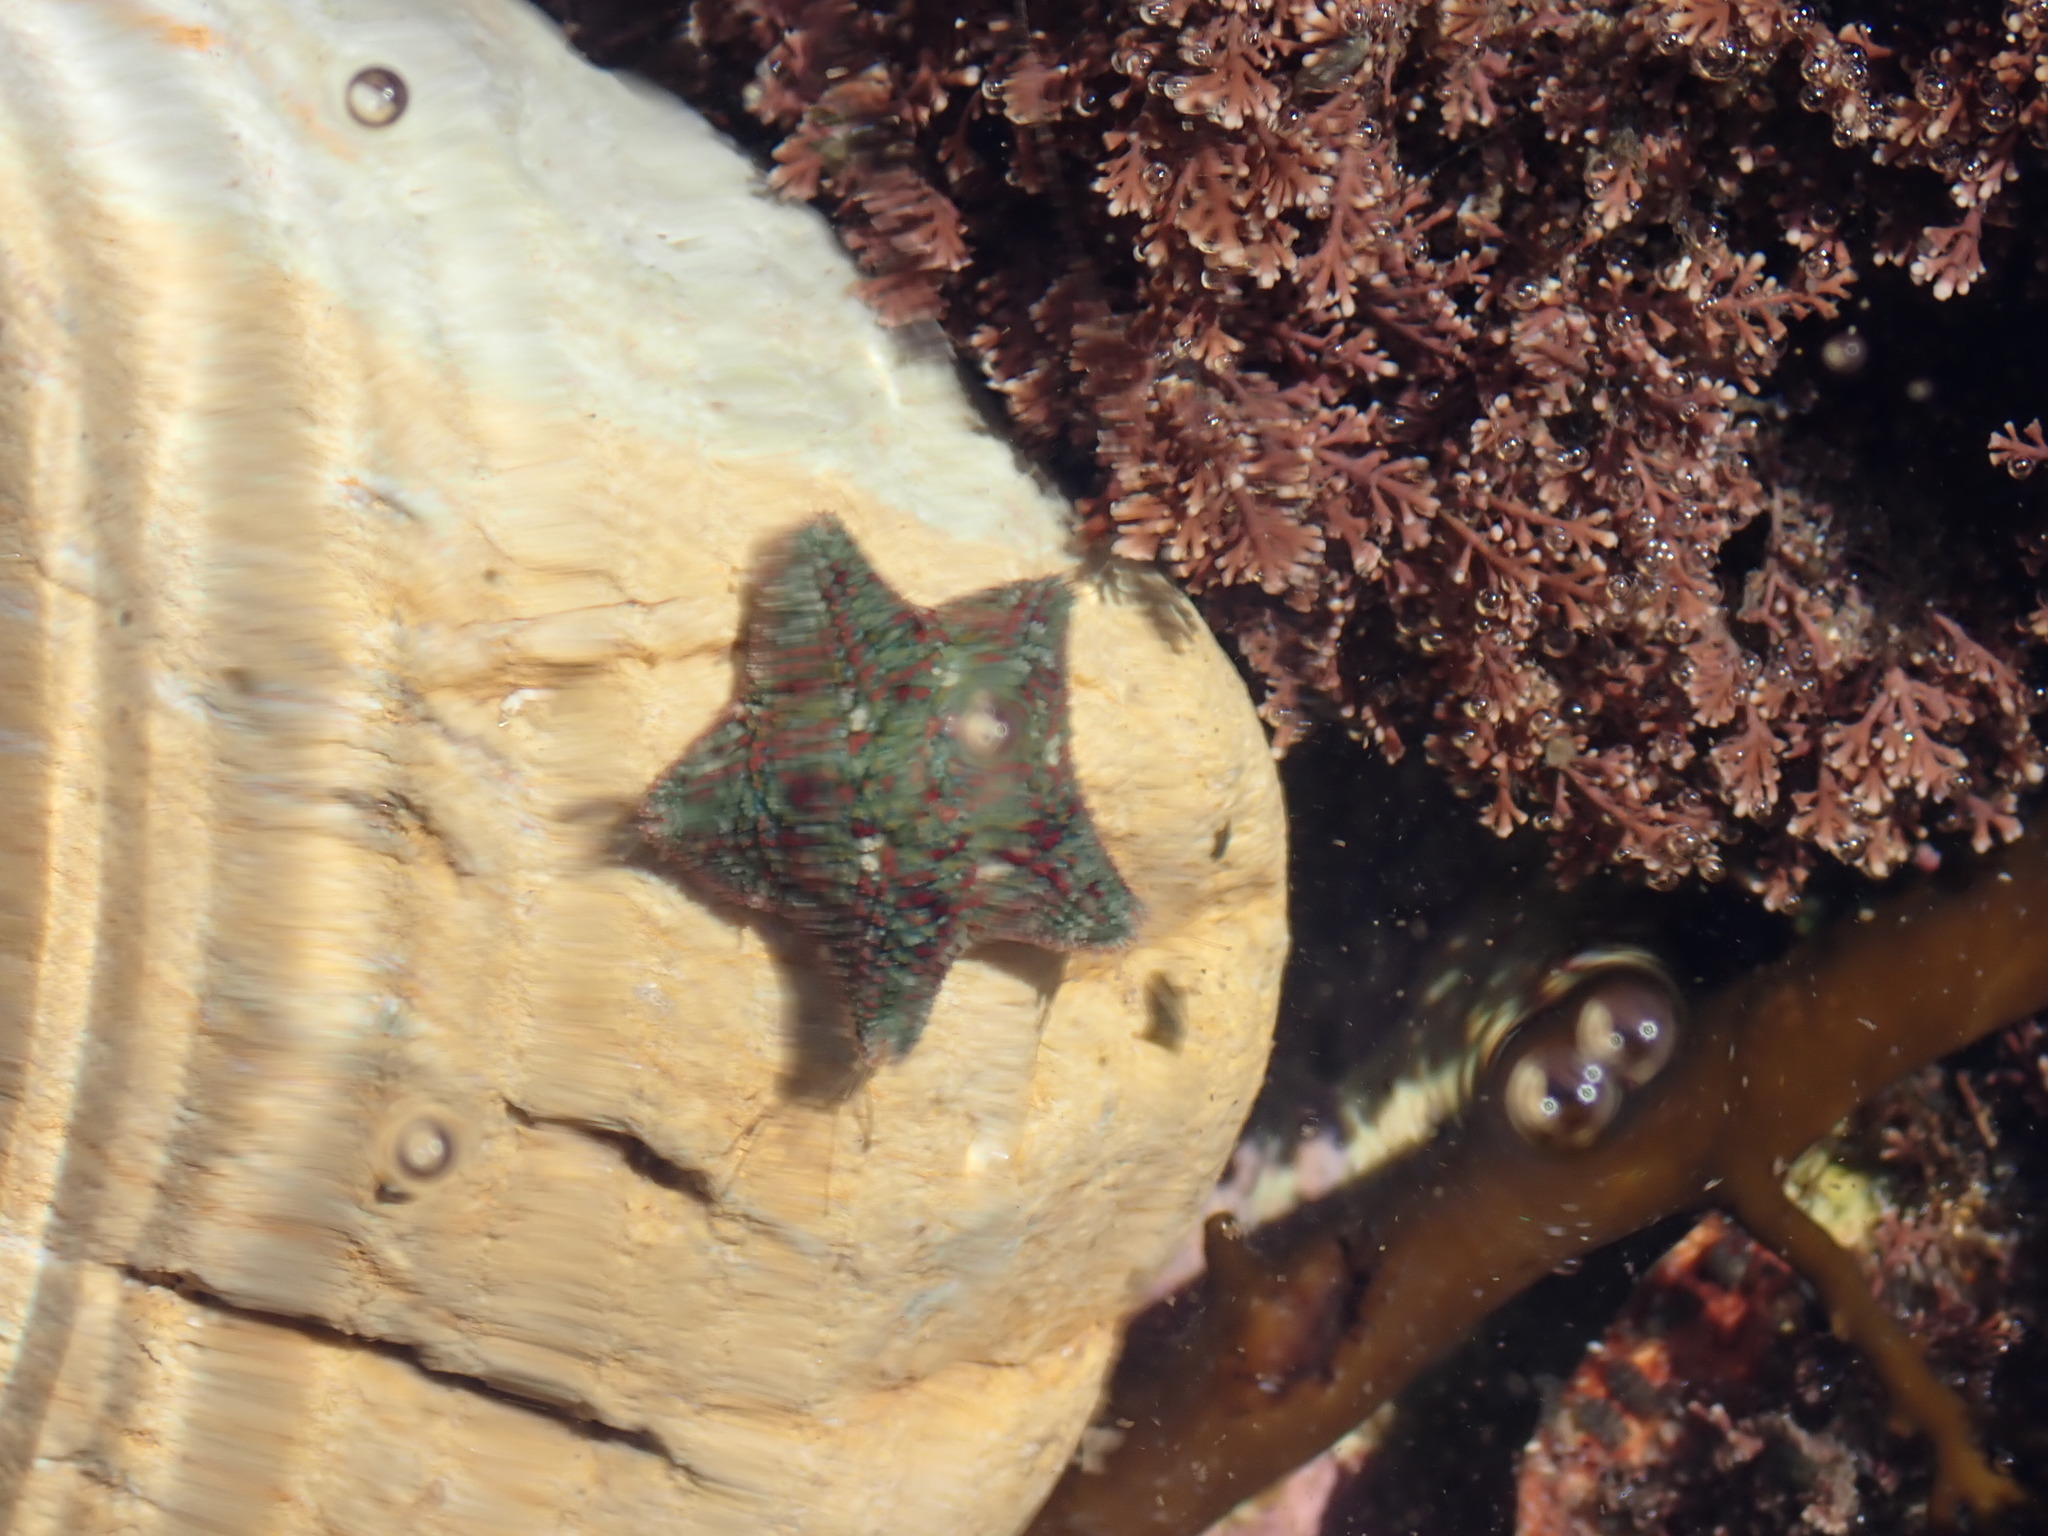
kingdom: Animalia
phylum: Echinodermata
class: Asteroidea
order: Valvatida
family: Asterinidae
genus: Parvulastra
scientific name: Parvulastra exigua
